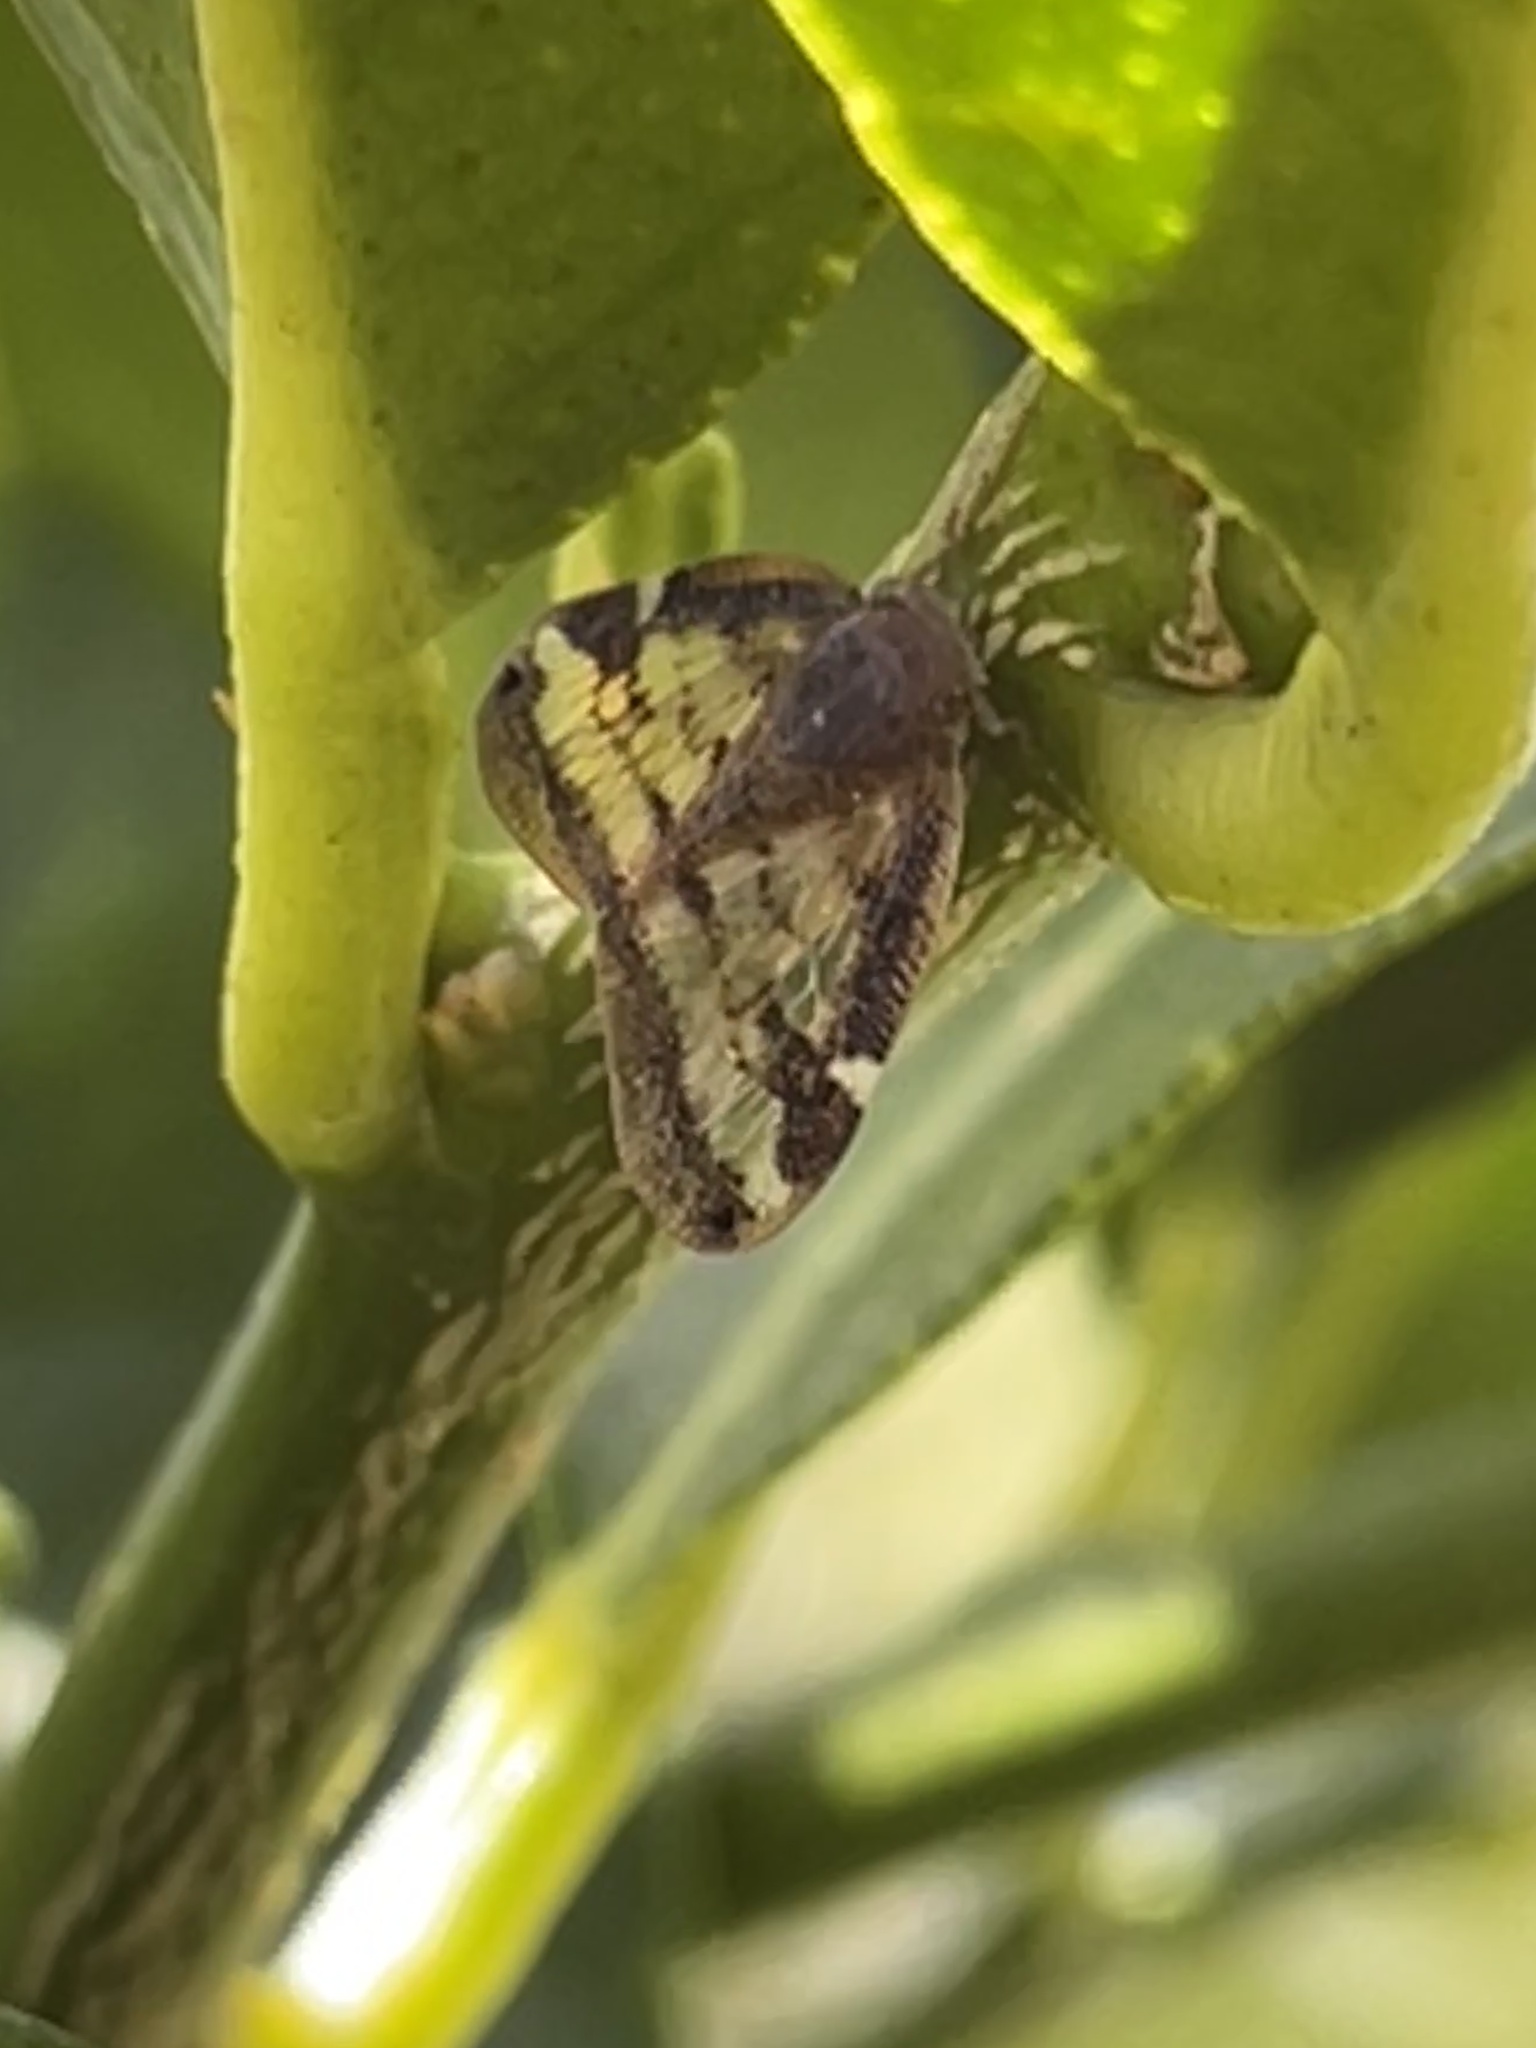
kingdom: Animalia
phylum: Arthropoda
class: Insecta
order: Hemiptera
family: Ricaniidae
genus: Scolypopa
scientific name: Scolypopa australis
